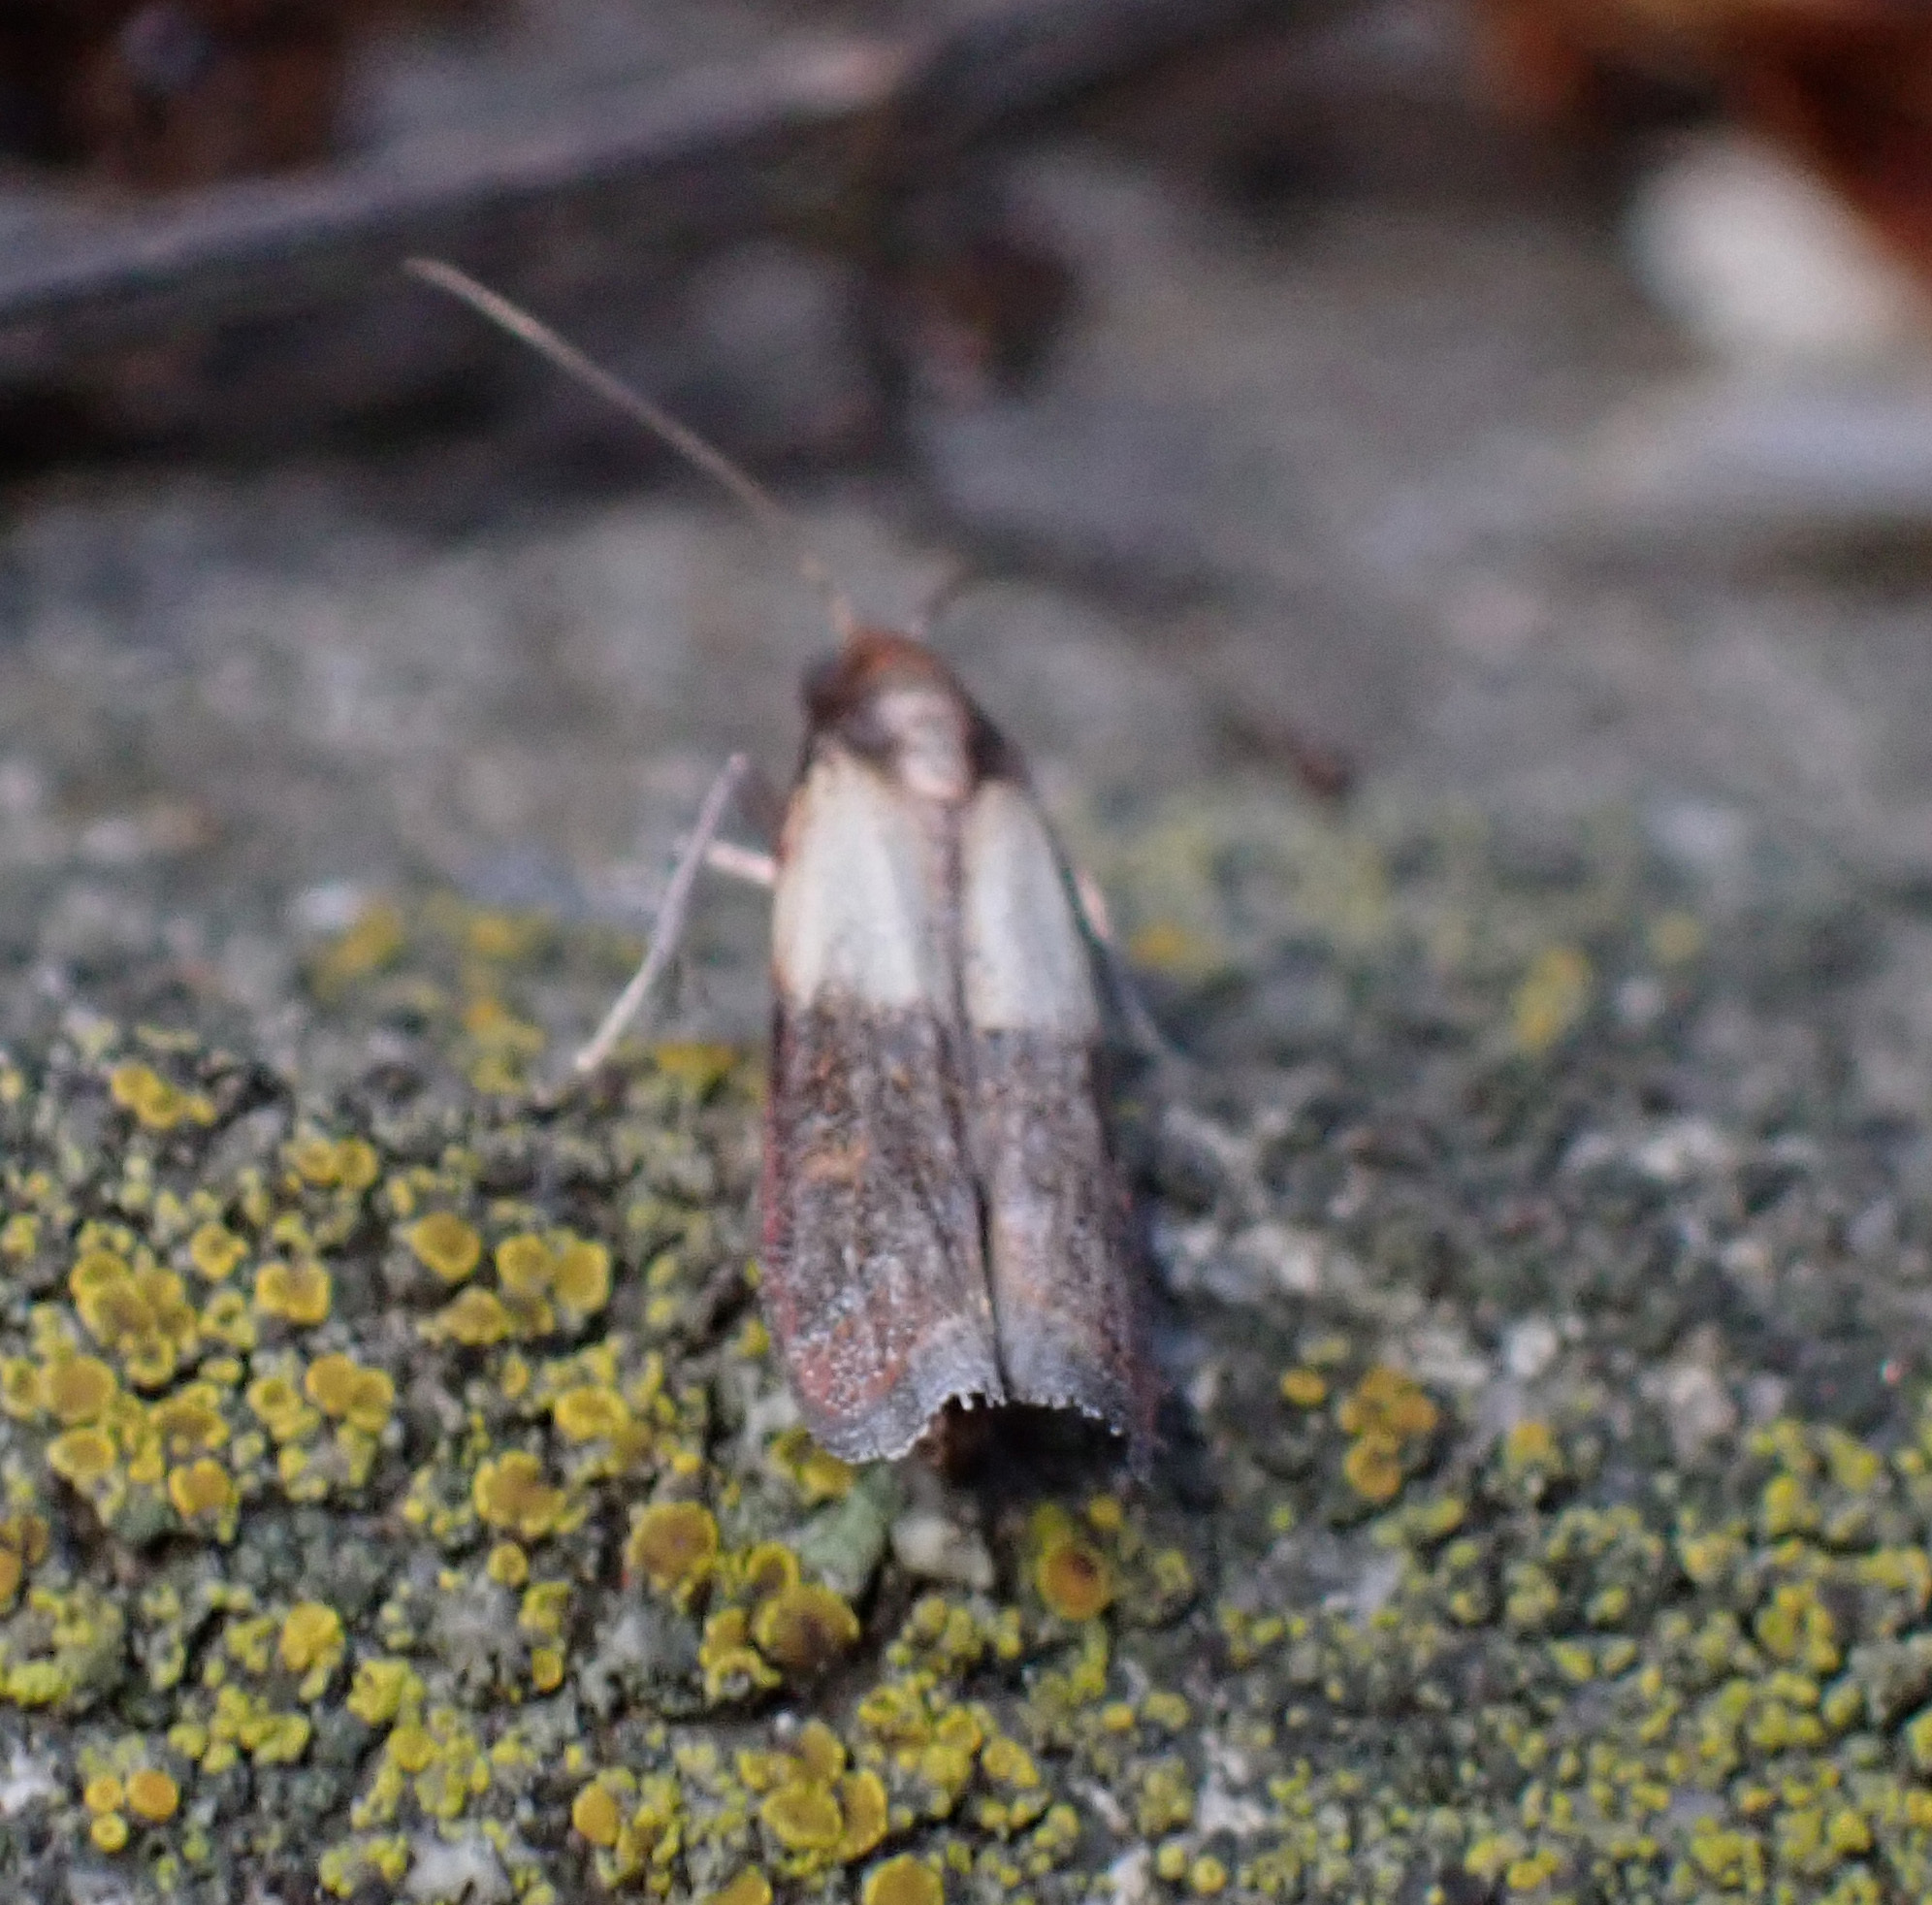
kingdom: Animalia
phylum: Arthropoda
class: Insecta
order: Lepidoptera
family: Pyralidae
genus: Plodia
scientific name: Plodia interpunctella
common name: Indian meal moth
